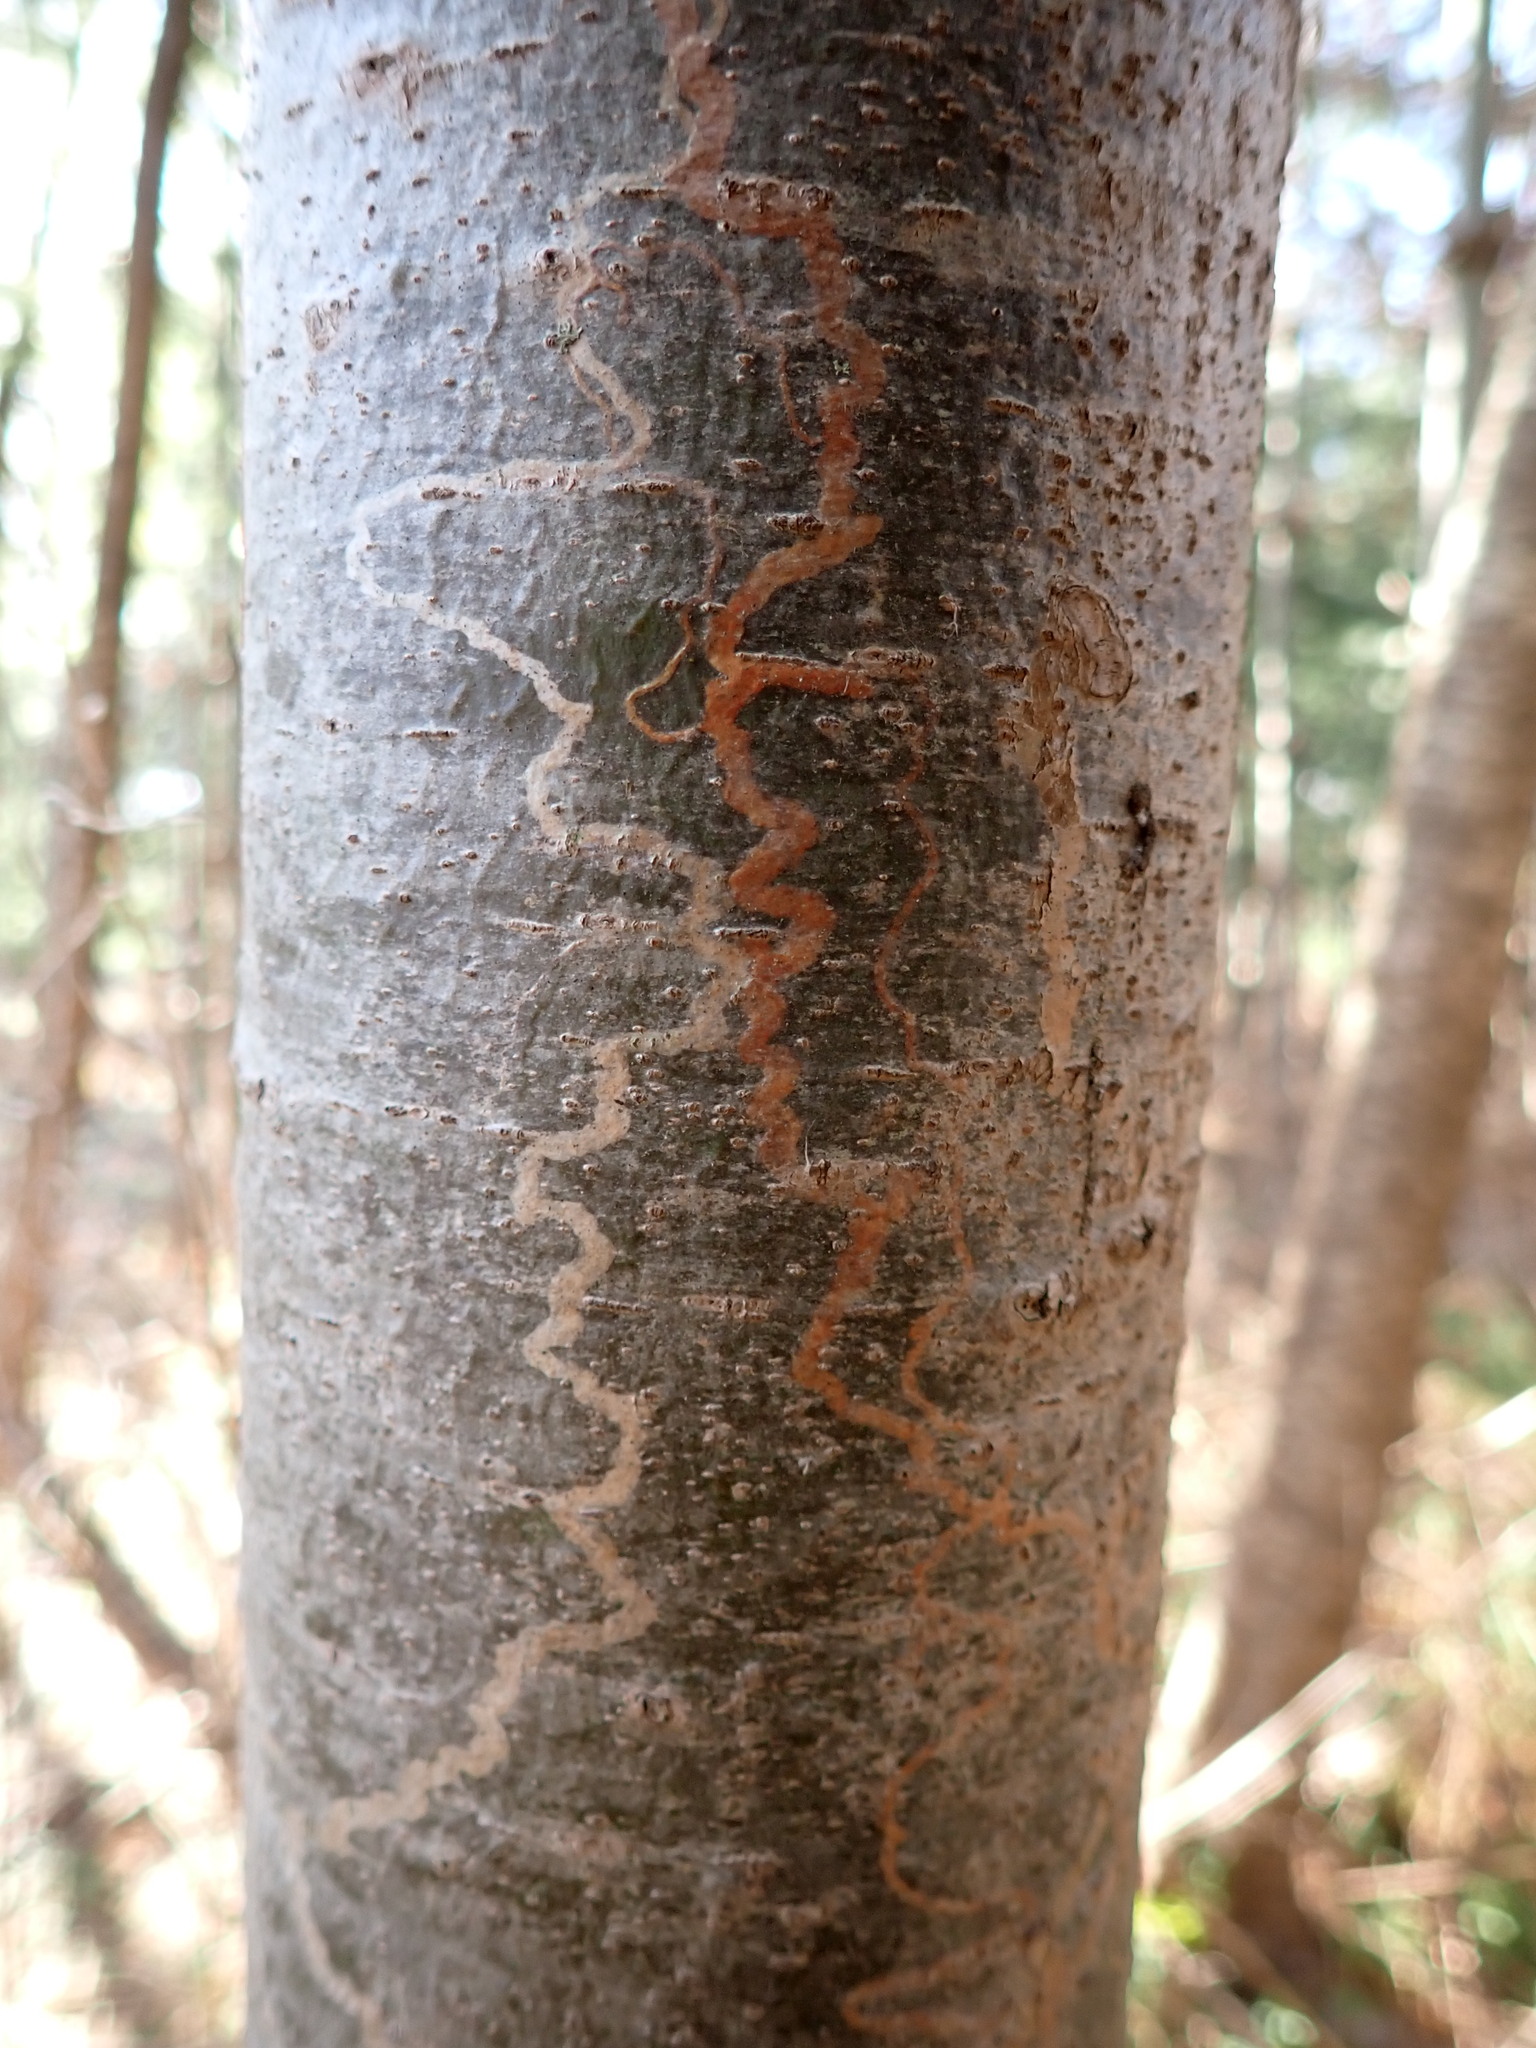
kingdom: Animalia
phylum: Arthropoda
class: Insecta
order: Lepidoptera
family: Gracillariidae
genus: Marmara
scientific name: Marmara fasciella
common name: White pine barkminer moth
